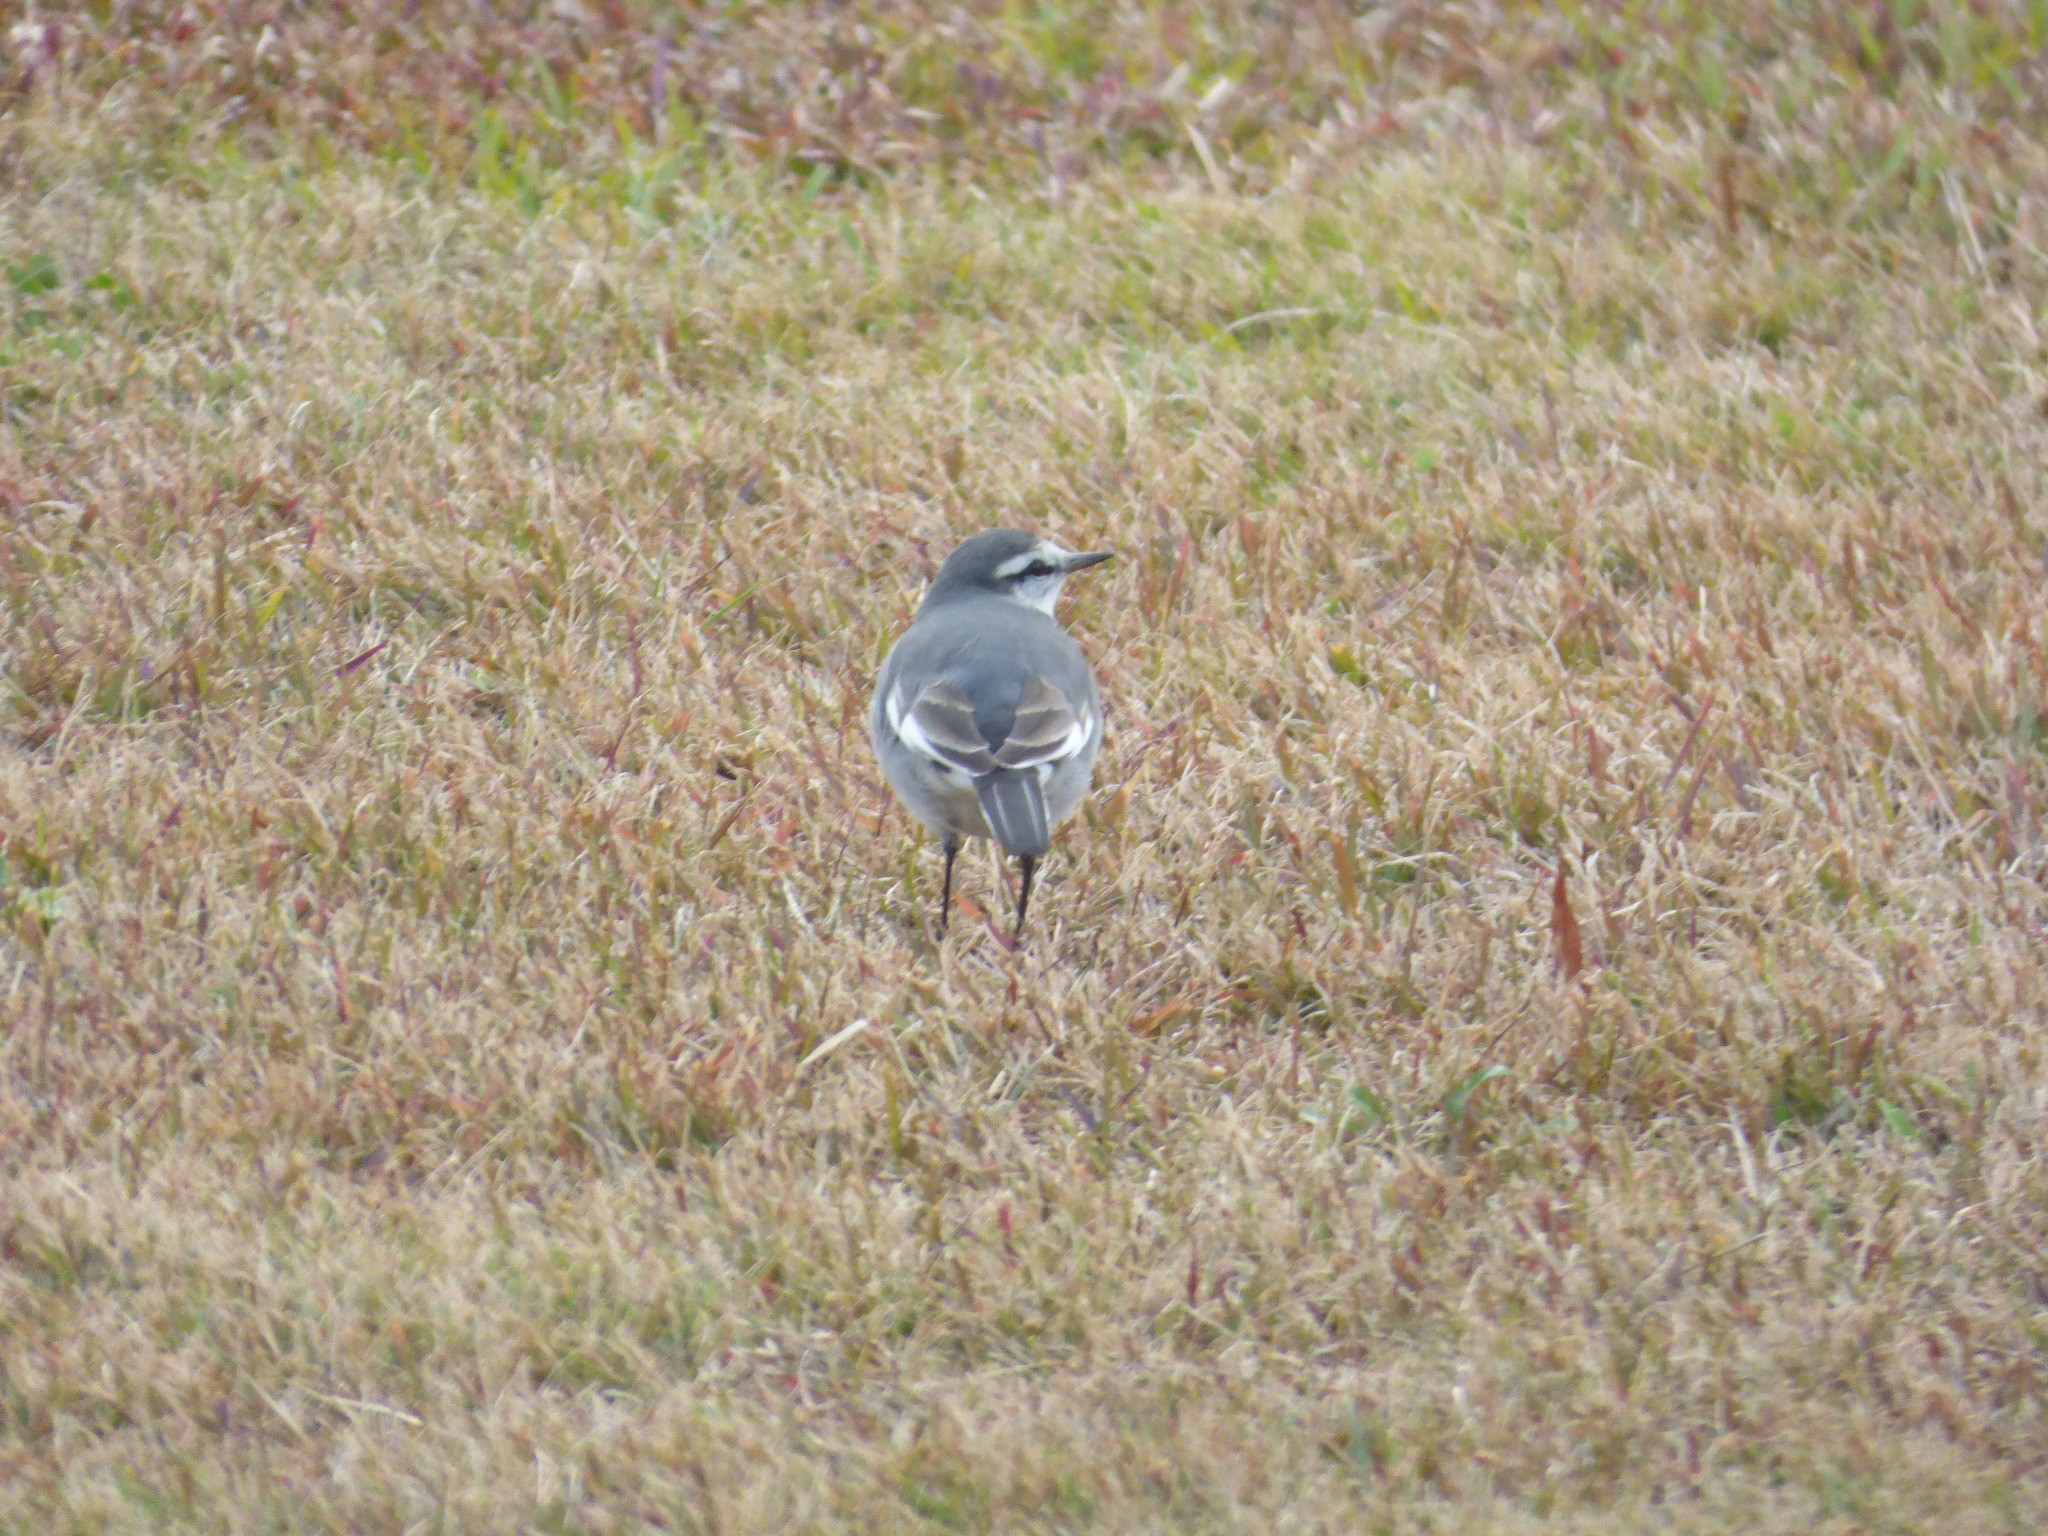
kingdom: Animalia
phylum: Chordata
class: Aves
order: Passeriformes
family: Motacillidae
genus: Motacilla
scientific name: Motacilla alba
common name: White wagtail
